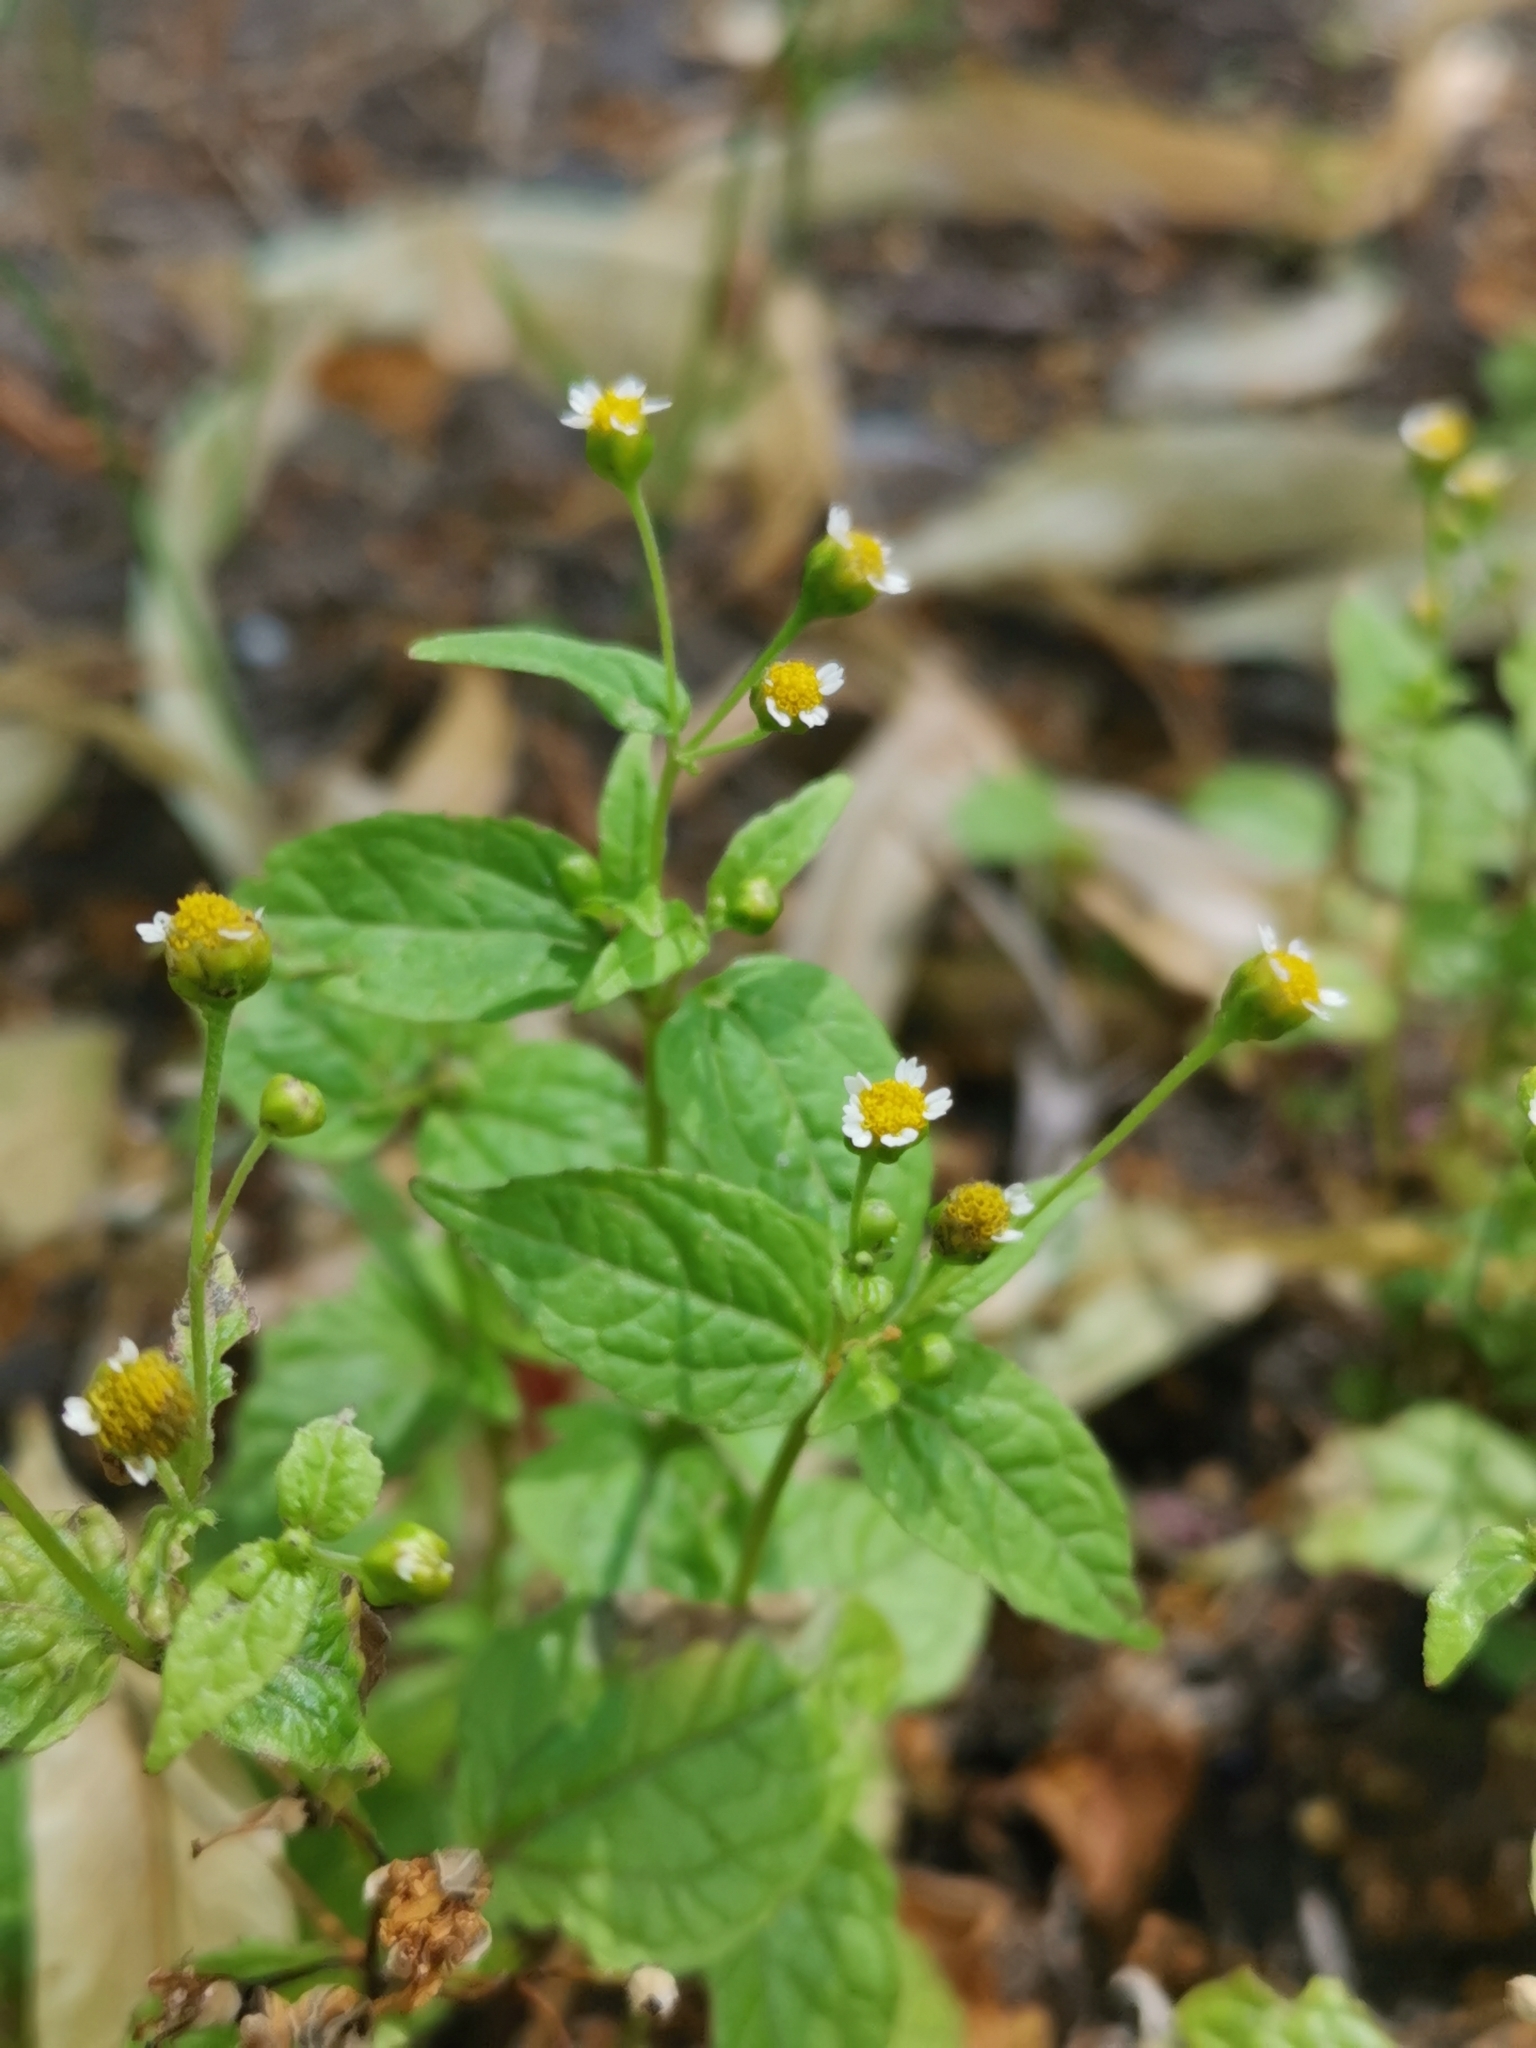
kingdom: Plantae
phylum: Tracheophyta
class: Magnoliopsida
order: Asterales
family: Asteraceae
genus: Galinsoga
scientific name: Galinsoga parviflora
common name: Gallant soldier
